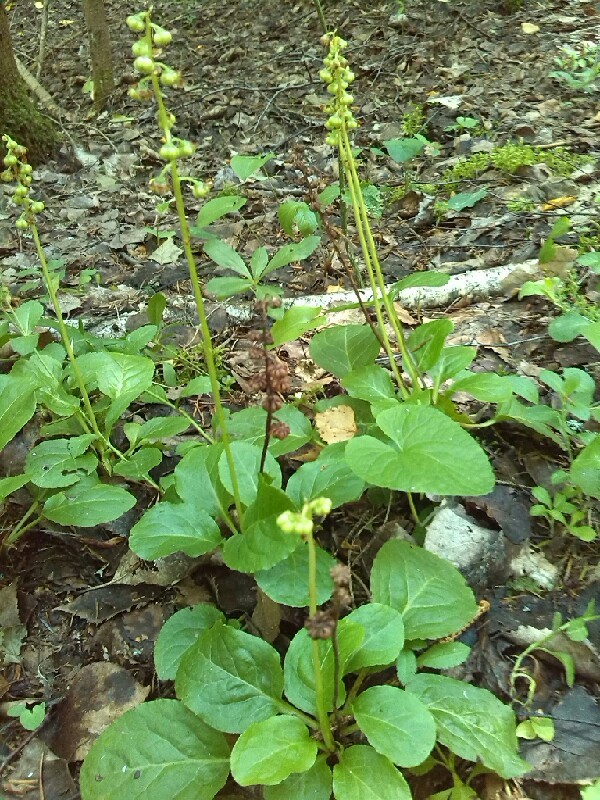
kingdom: Plantae
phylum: Tracheophyta
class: Magnoliopsida
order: Ericales
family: Ericaceae
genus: Pyrola
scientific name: Pyrola minor
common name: Common wintergreen
